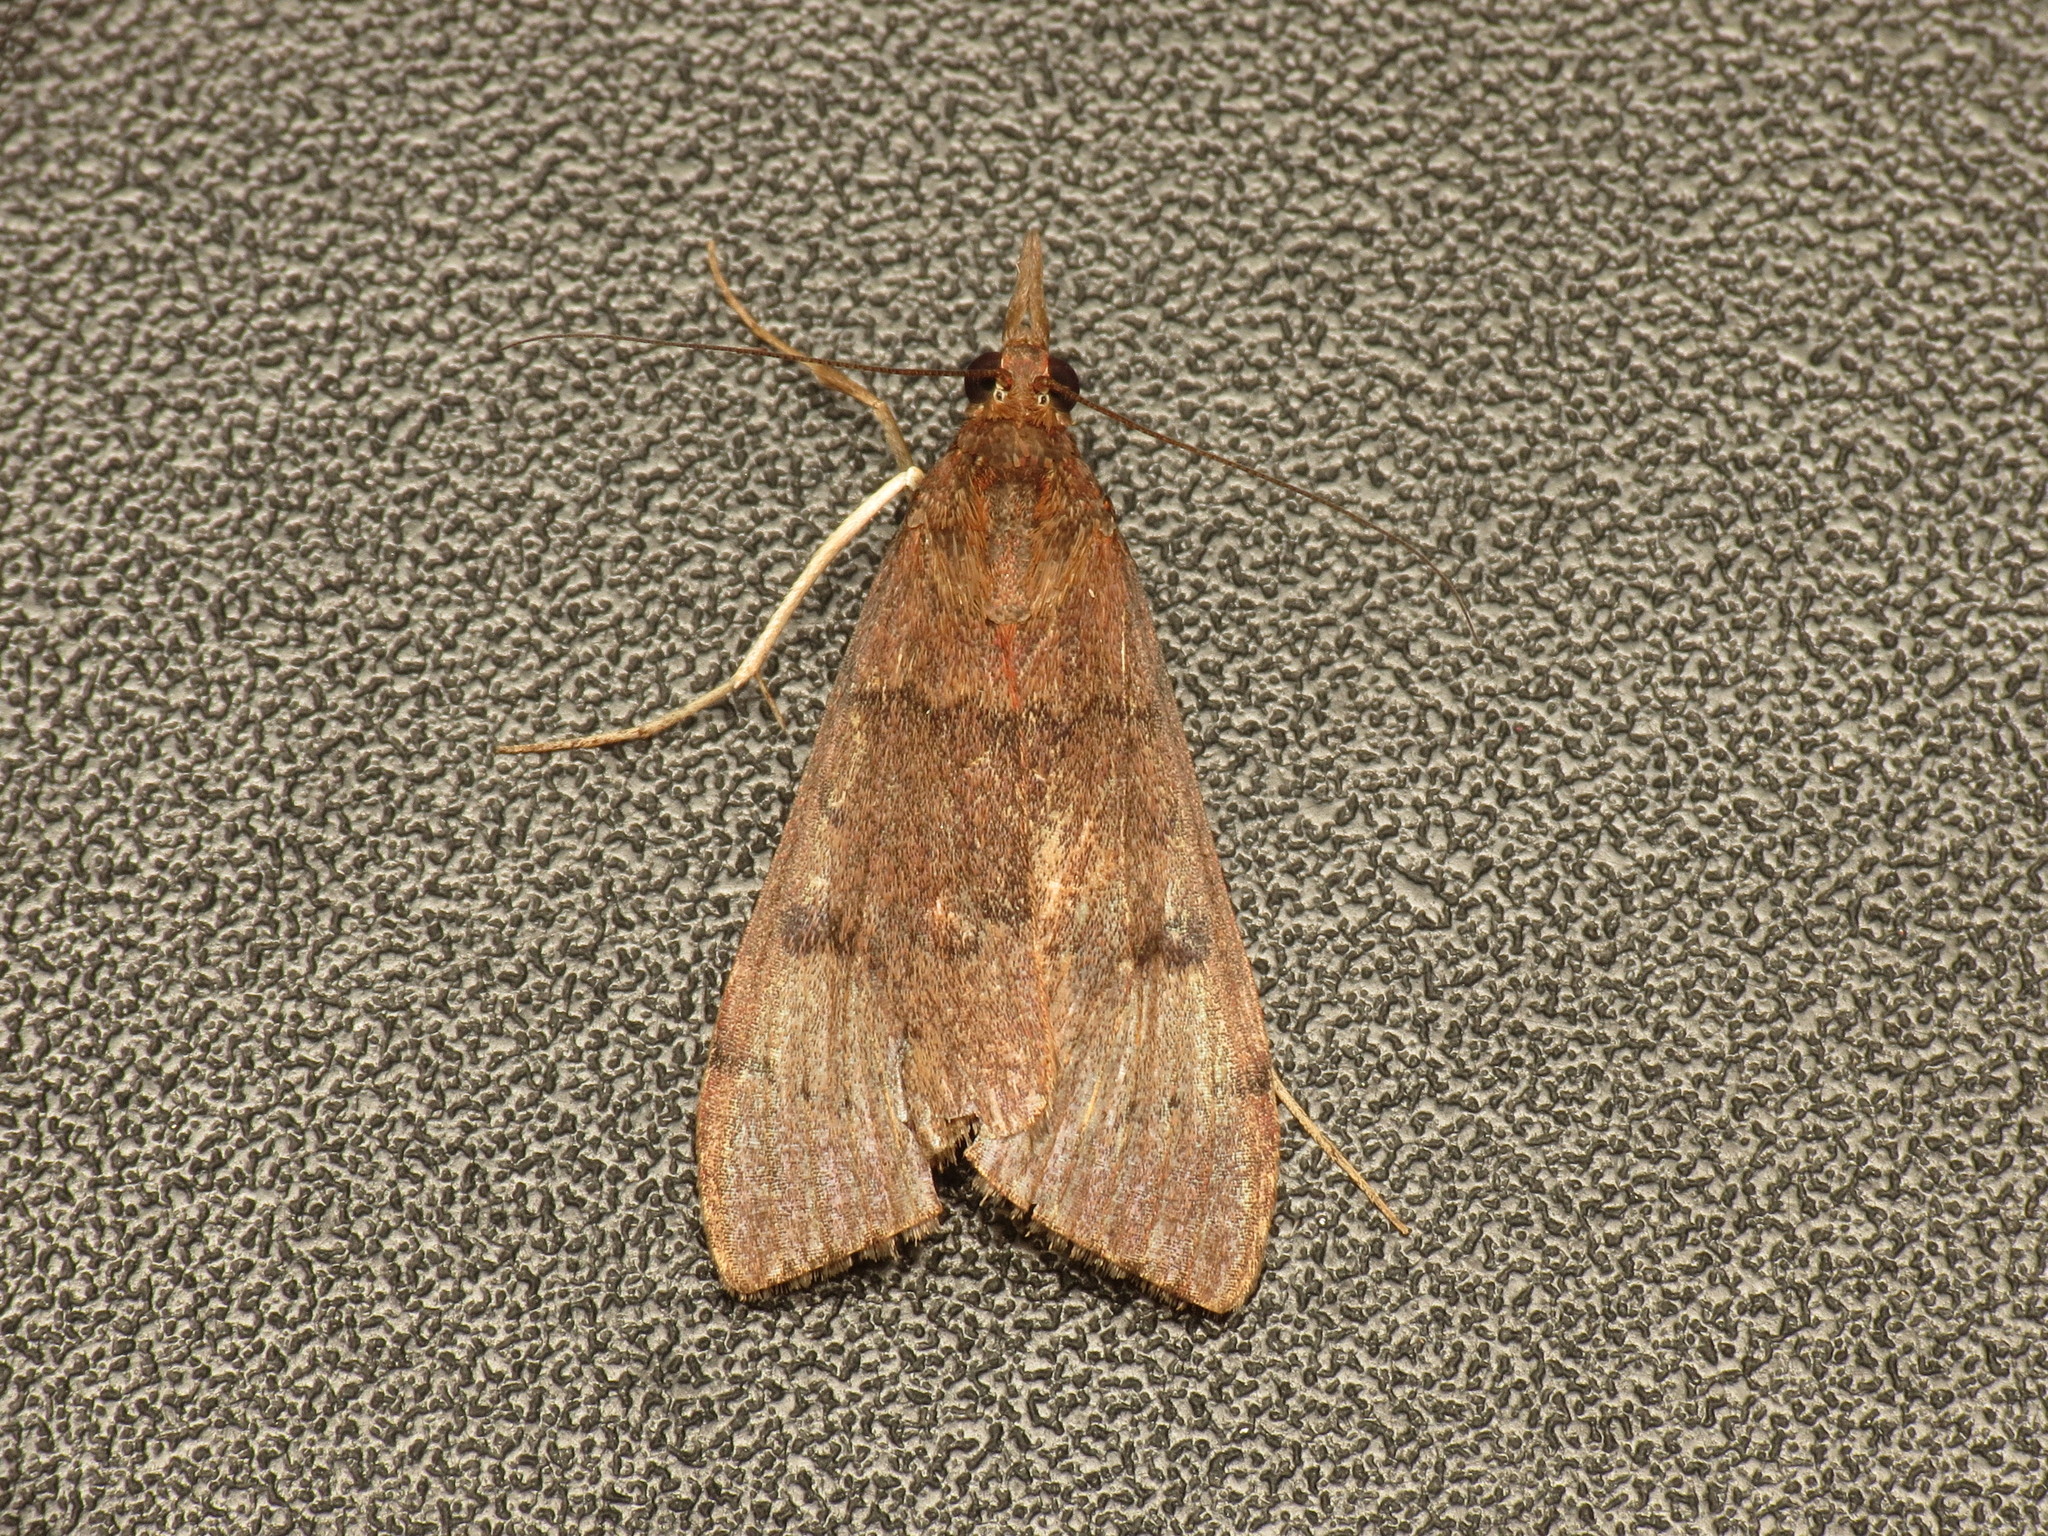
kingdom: Animalia
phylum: Arthropoda
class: Insecta
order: Lepidoptera
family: Crambidae
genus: Uresiphita
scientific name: Uresiphita ornithopteralis
